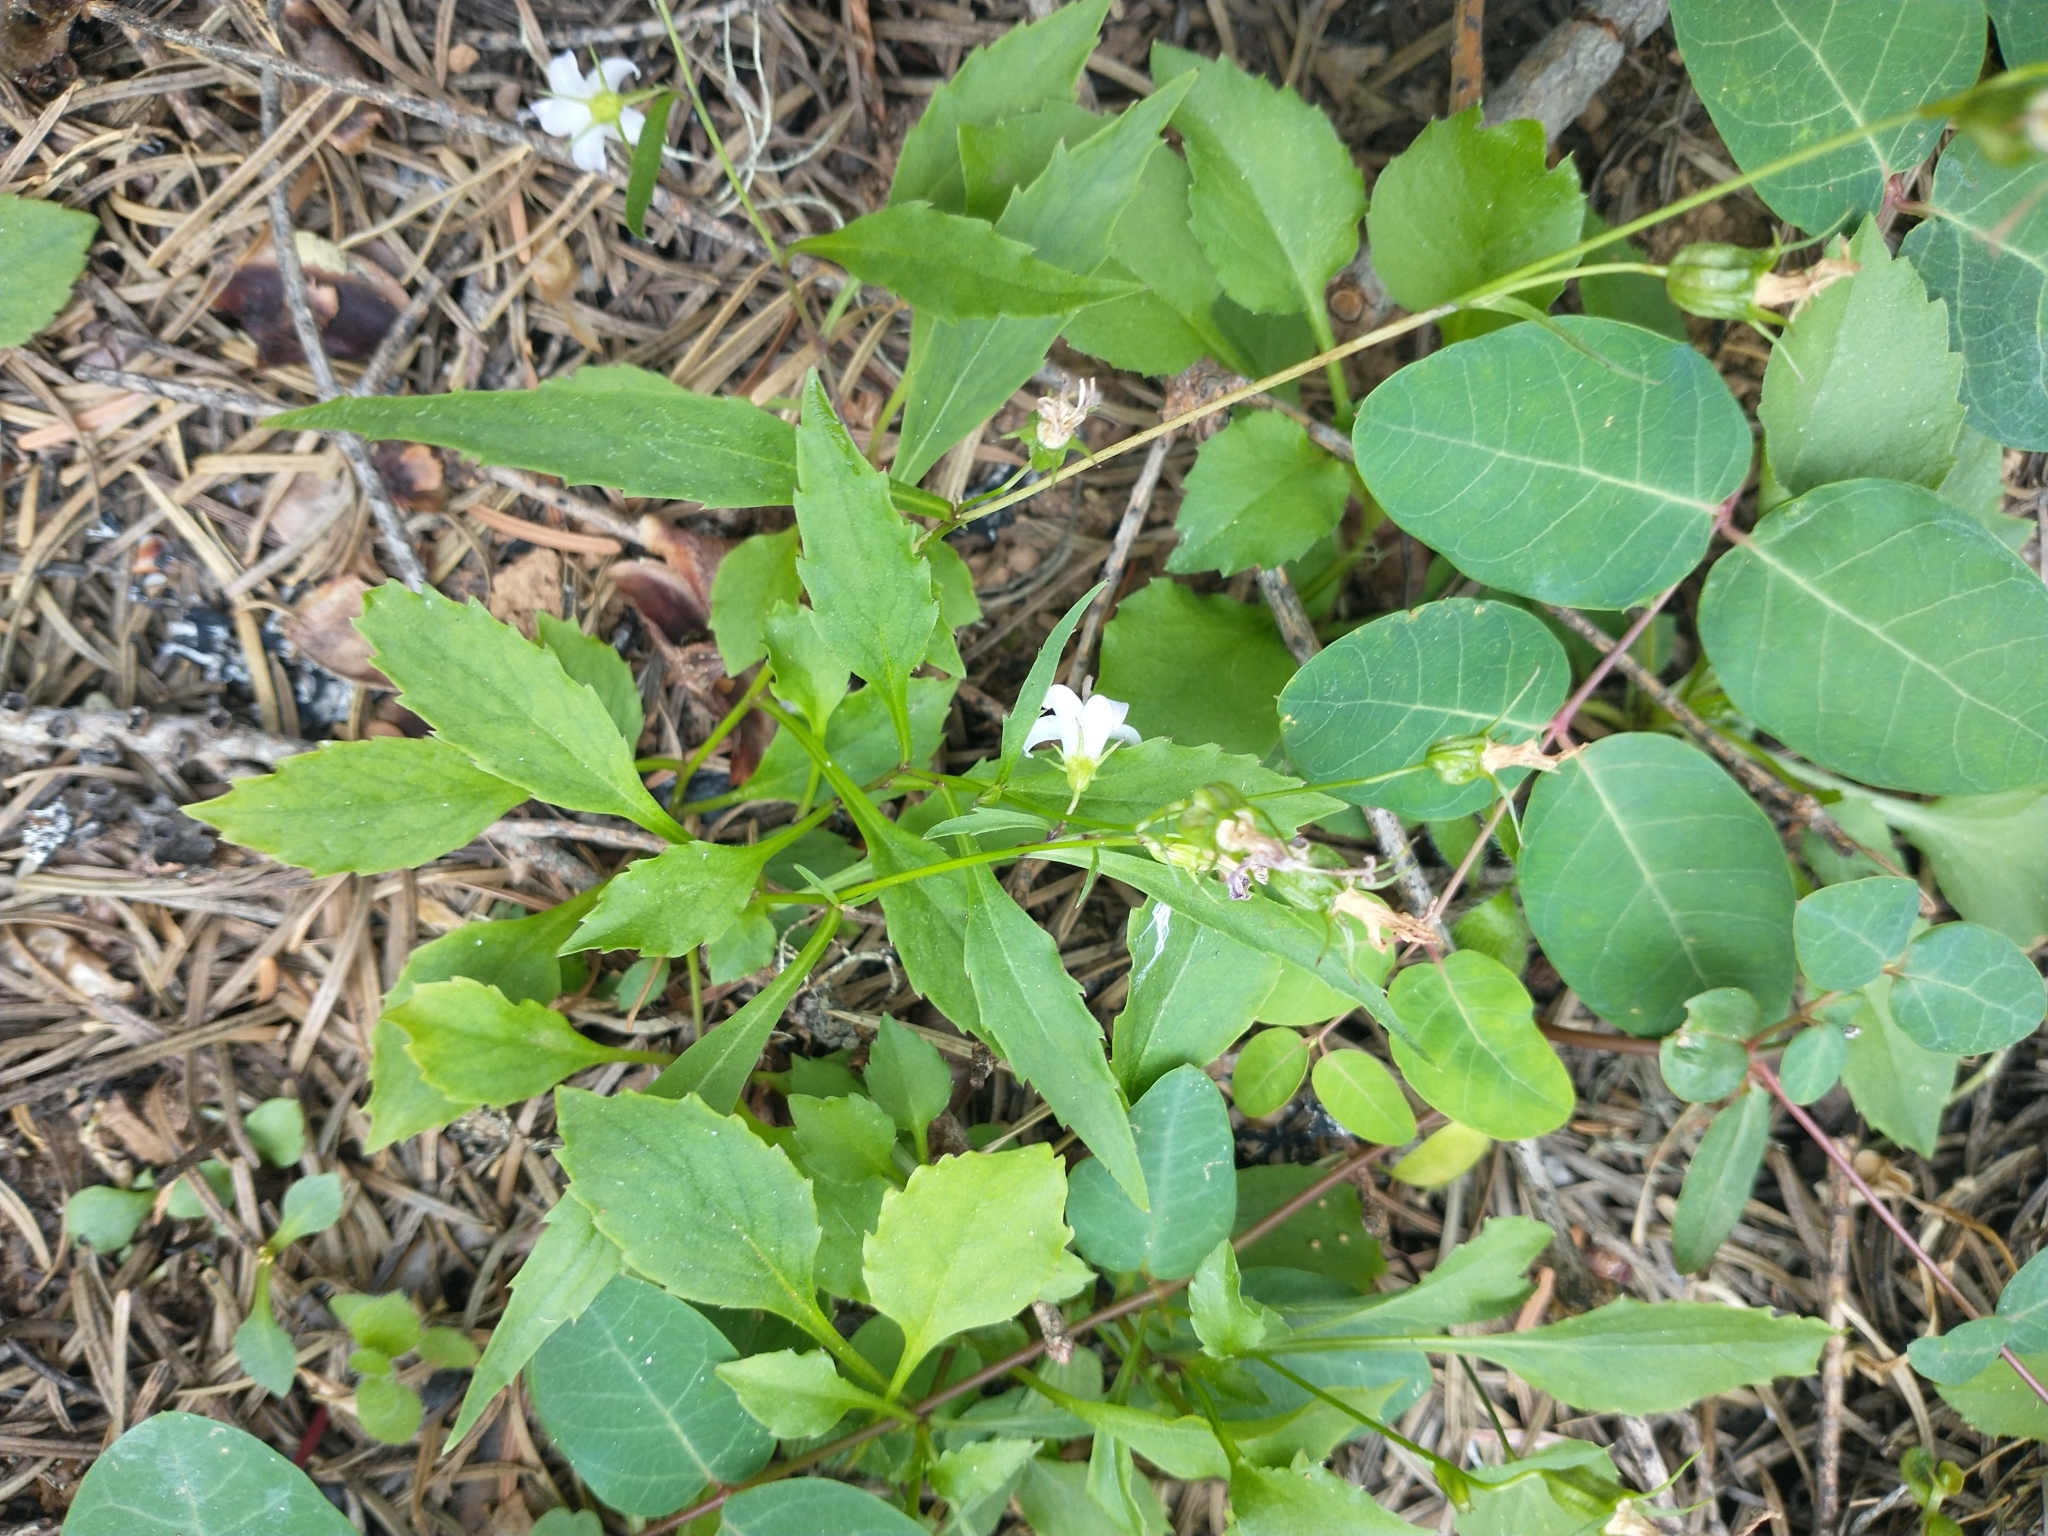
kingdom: Plantae
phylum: Tracheophyta
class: Magnoliopsida
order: Asterales
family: Campanulaceae
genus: Campanula
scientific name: Campanula scouleri
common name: Scouler's harebell
